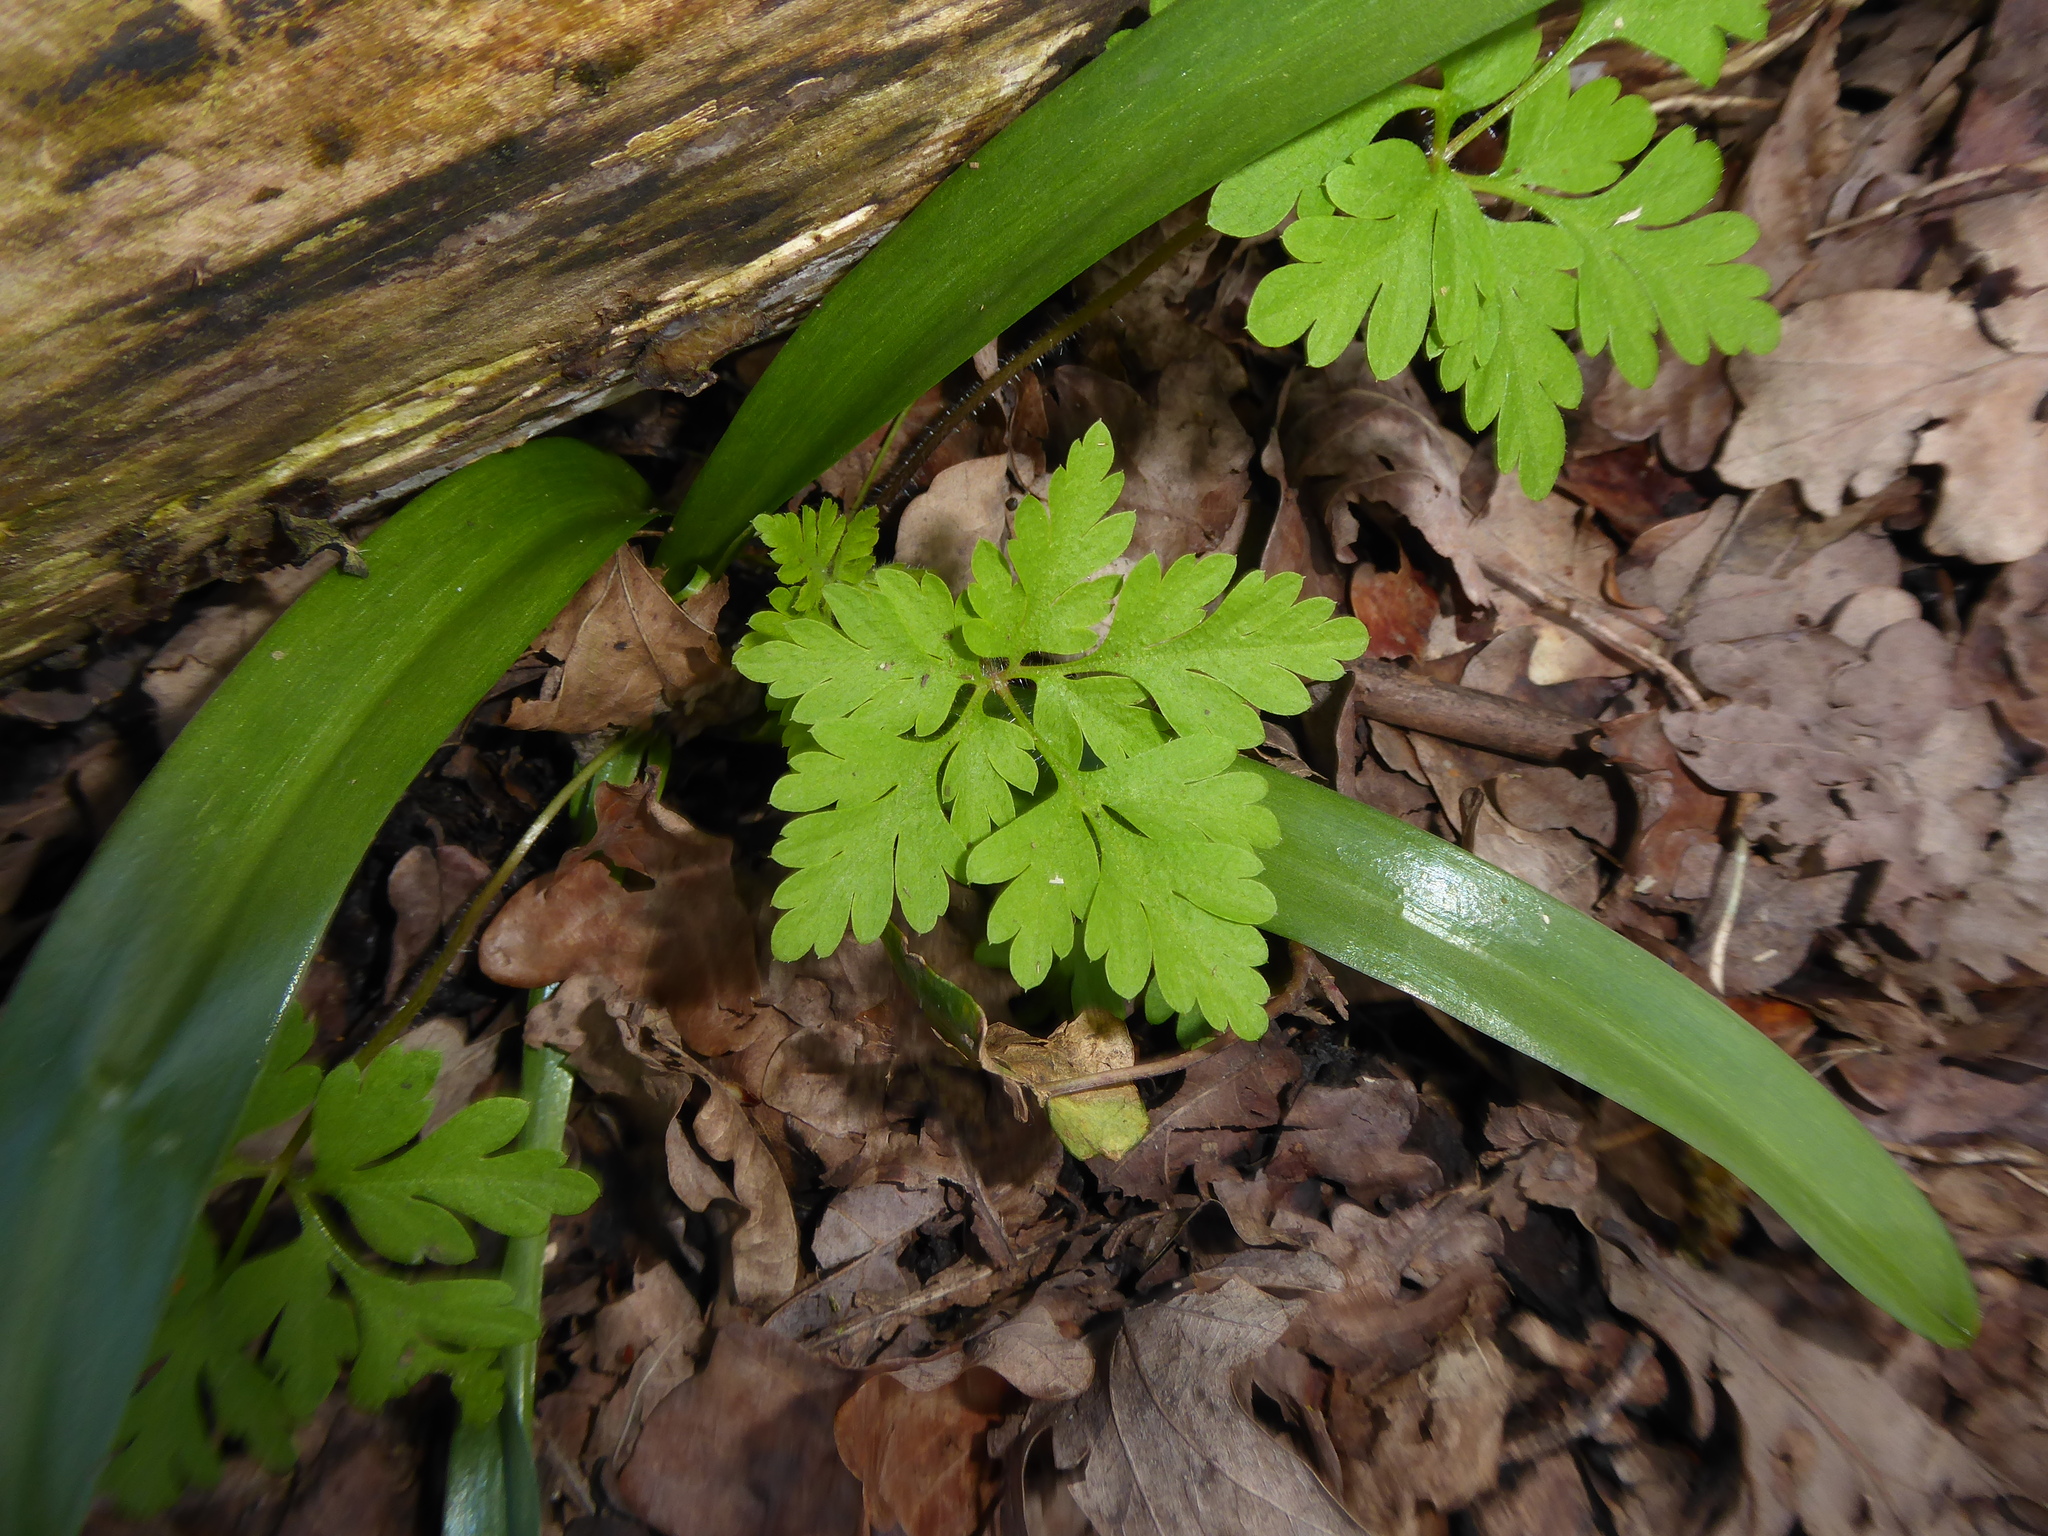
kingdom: Plantae
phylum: Tracheophyta
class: Magnoliopsida
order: Geraniales
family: Geraniaceae
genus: Geranium
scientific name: Geranium robertianum
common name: Herb-robert
